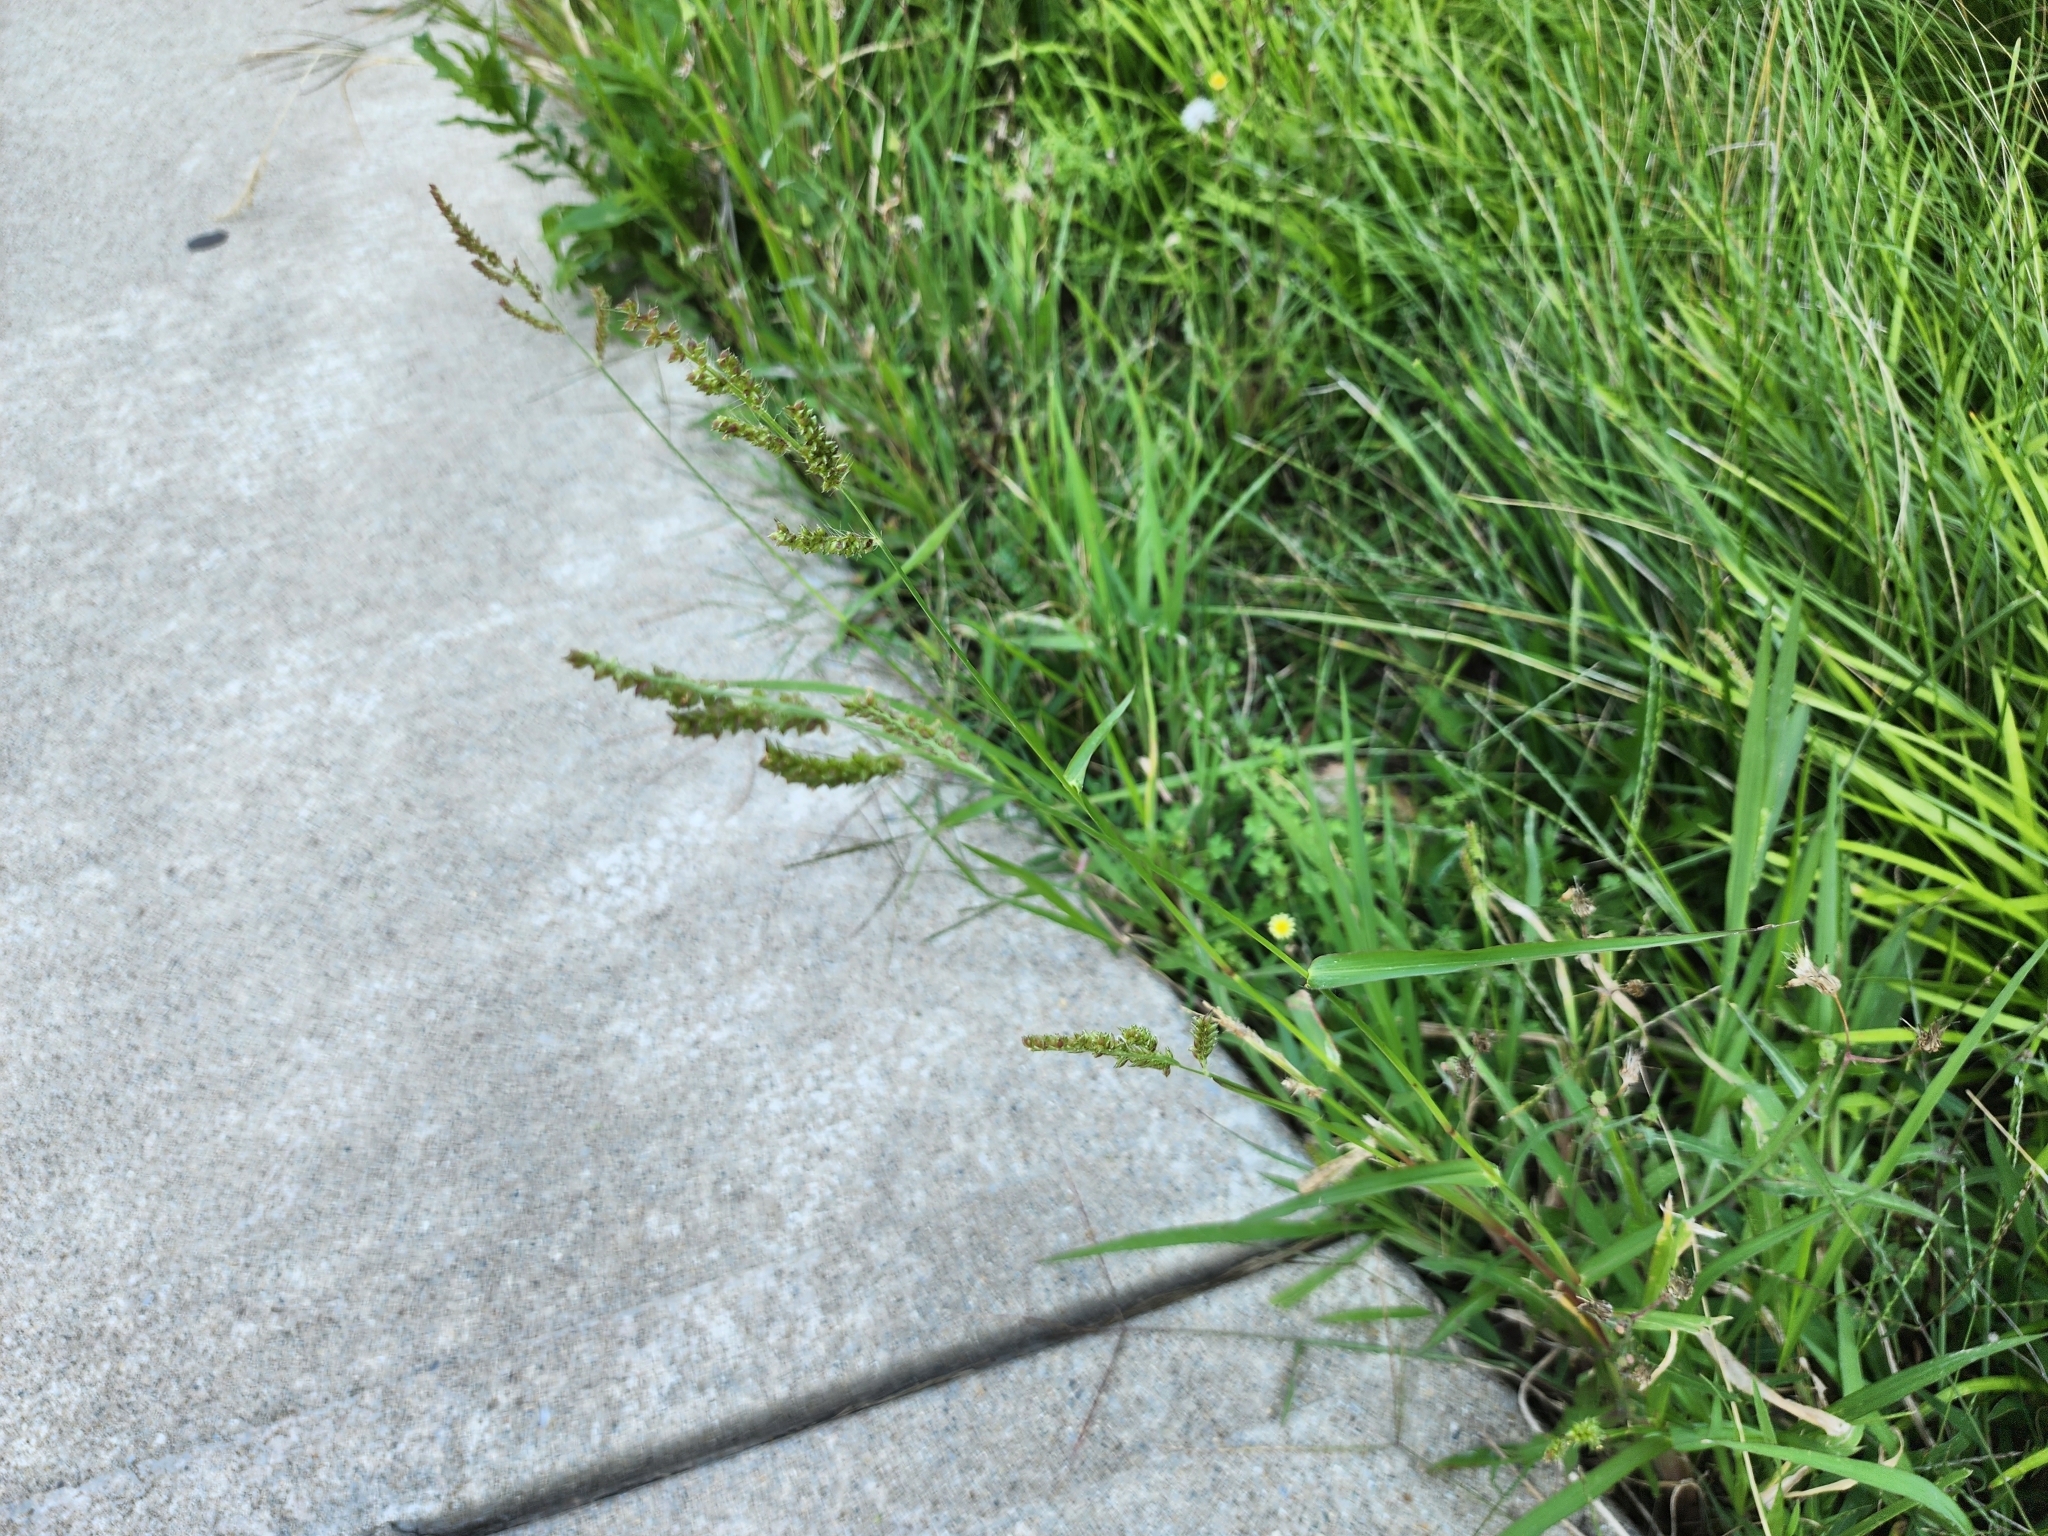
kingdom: Plantae
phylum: Tracheophyta
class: Liliopsida
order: Poales
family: Poaceae
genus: Echinochloa
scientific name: Echinochloa crus-galli
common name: Cockspur
